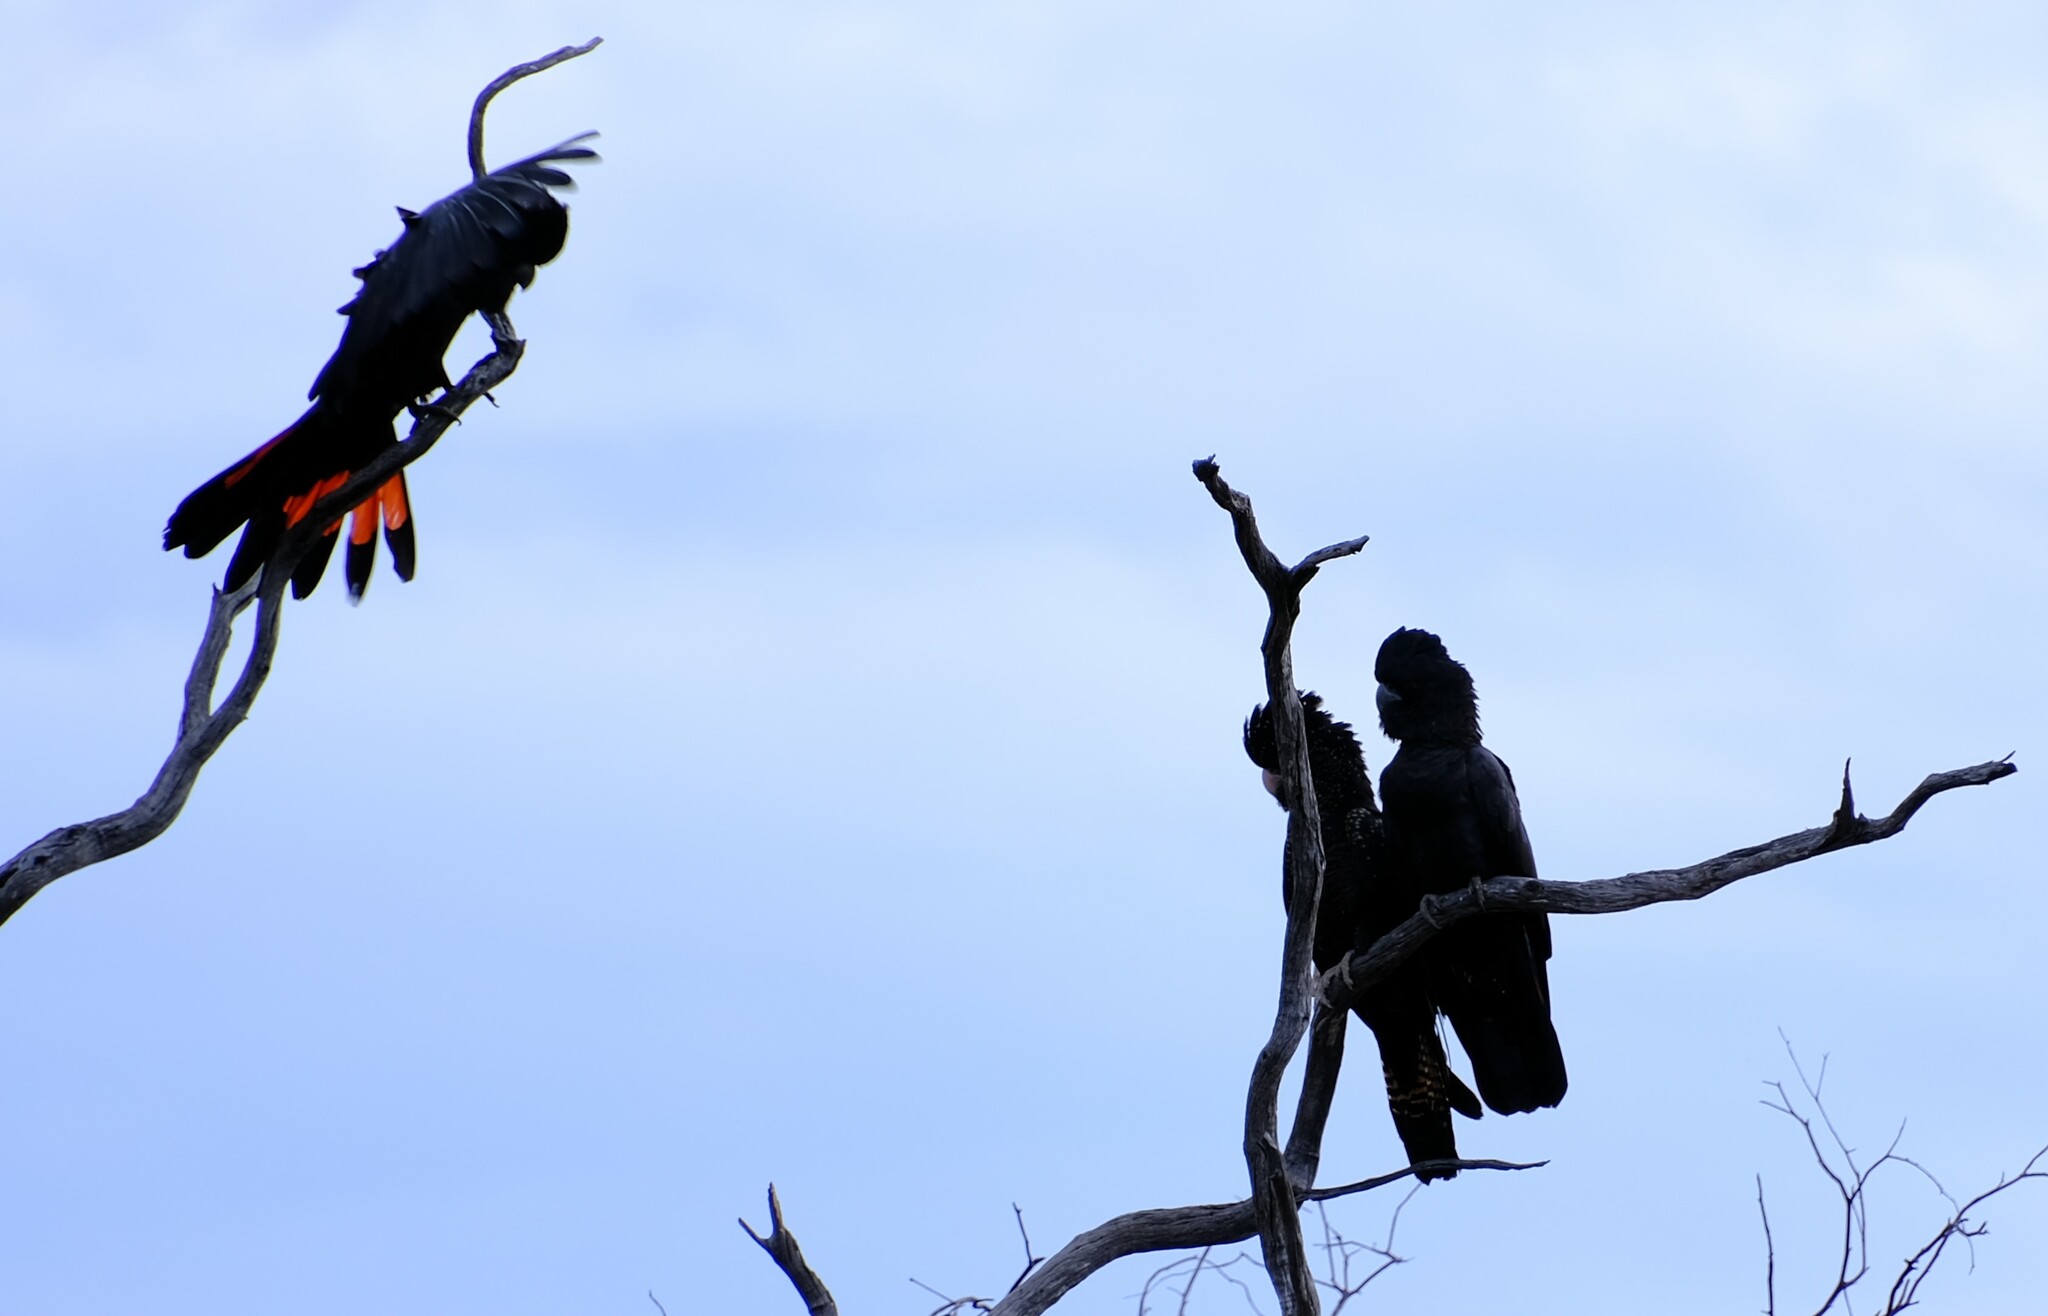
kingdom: Animalia
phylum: Chordata
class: Aves
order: Psittaciformes
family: Psittacidae
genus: Calyptorhynchus
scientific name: Calyptorhynchus banksii
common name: Red-tailed black cockatoo
